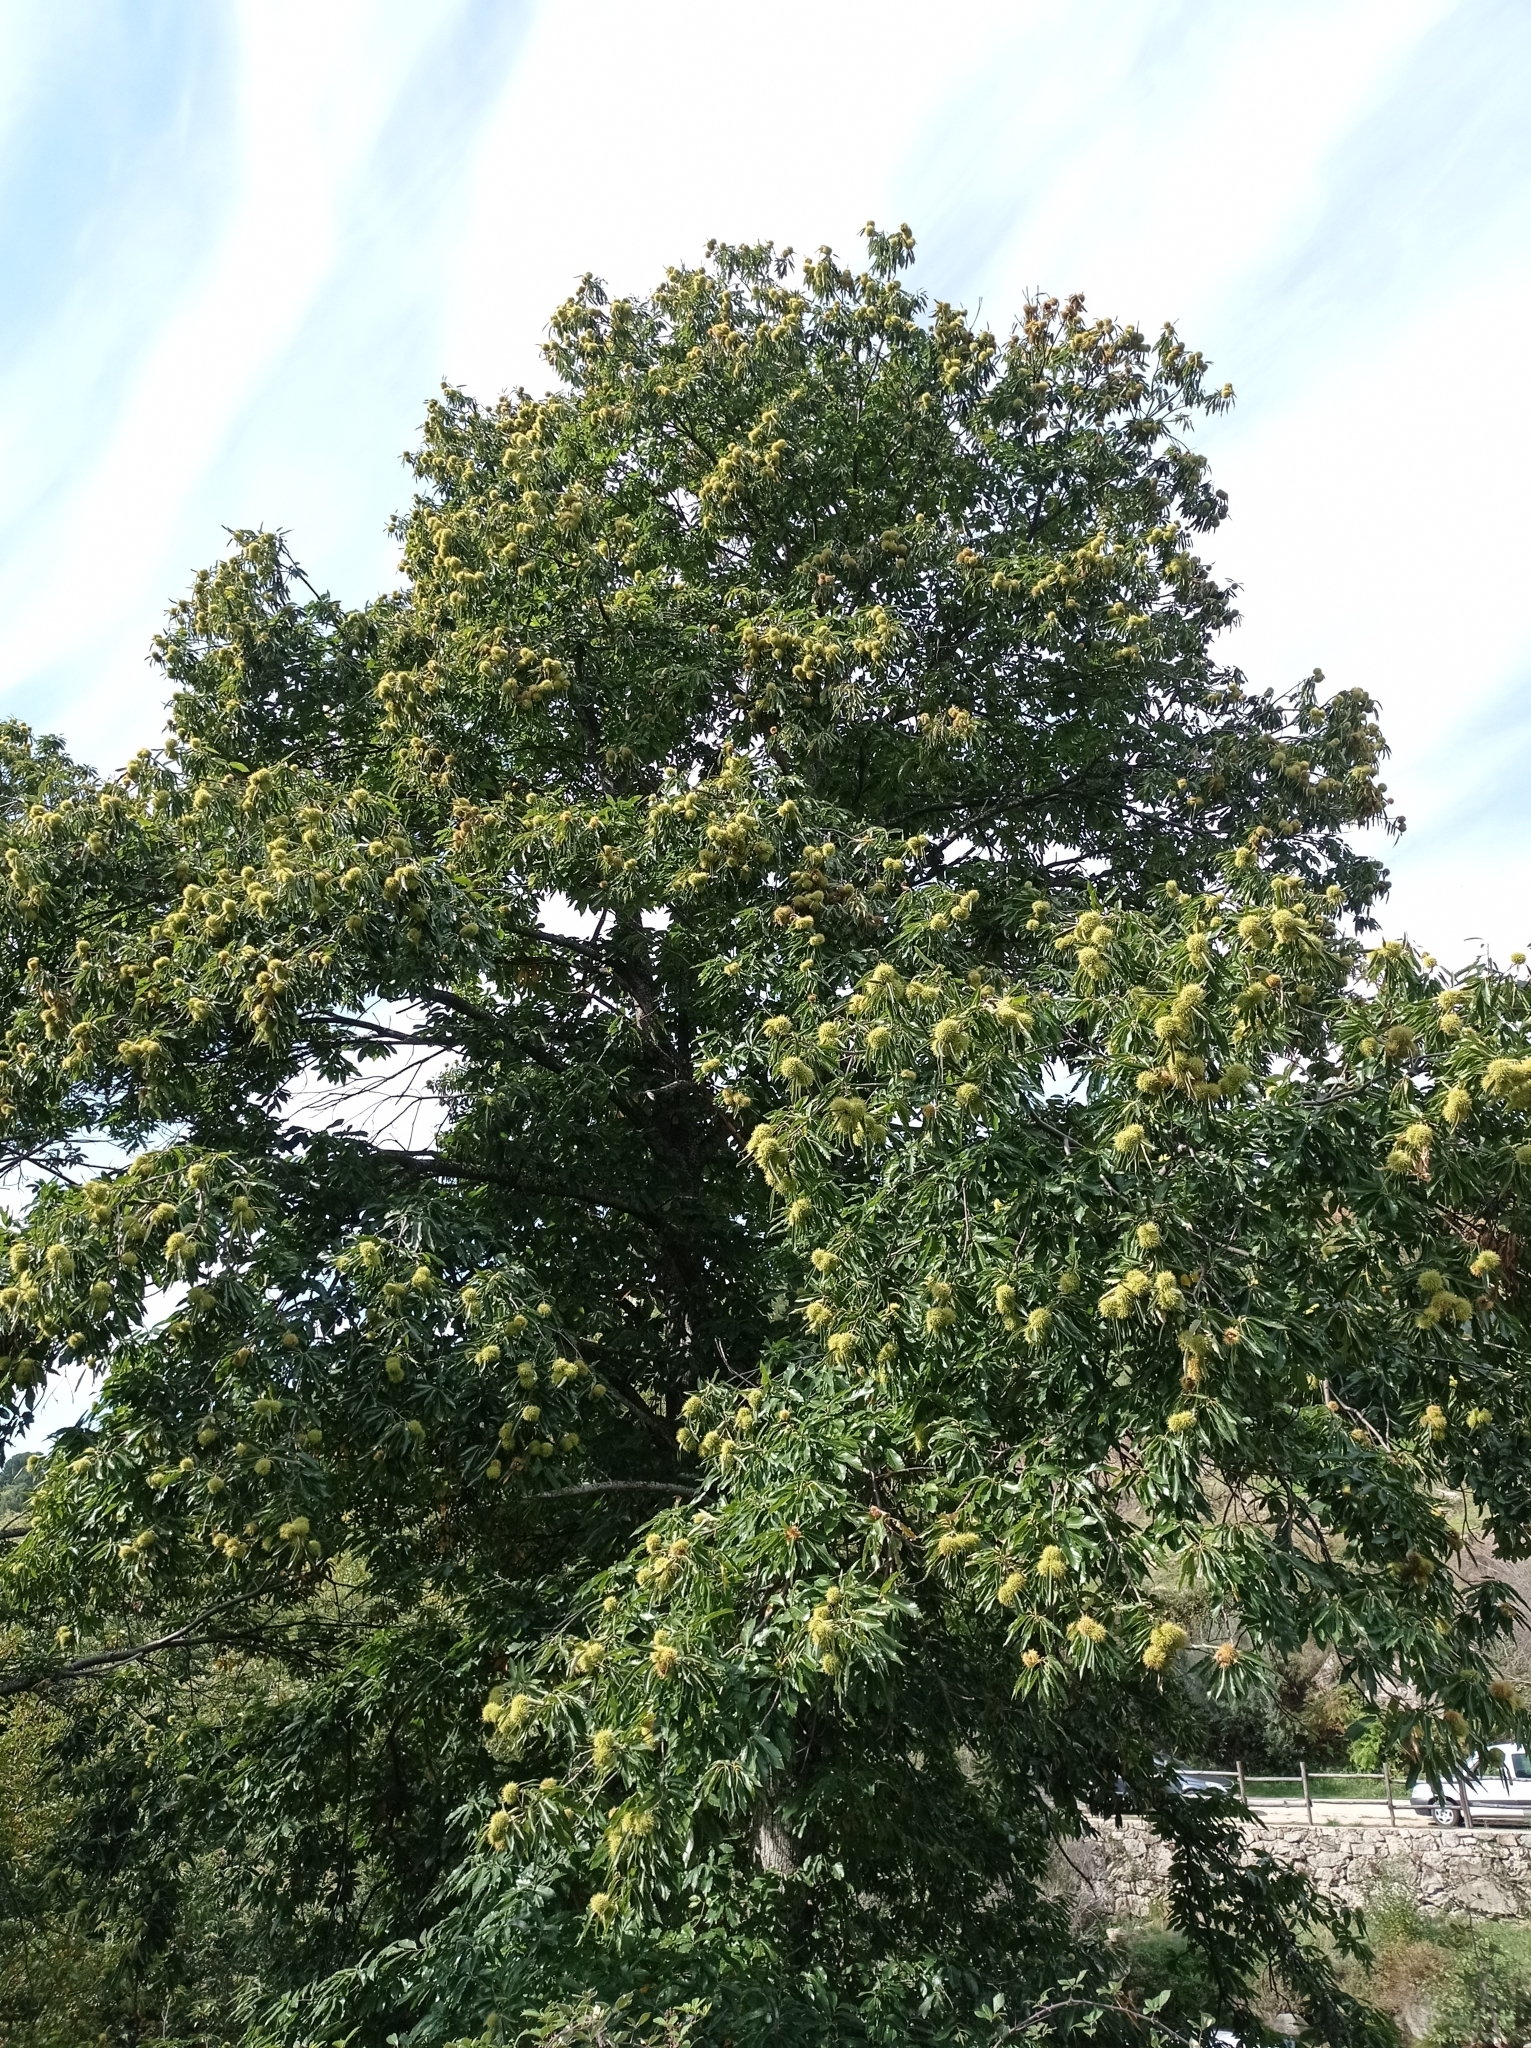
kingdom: Plantae
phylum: Tracheophyta
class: Magnoliopsida
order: Fagales
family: Fagaceae
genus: Castanea
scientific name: Castanea sativa
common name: Sweet chestnut
